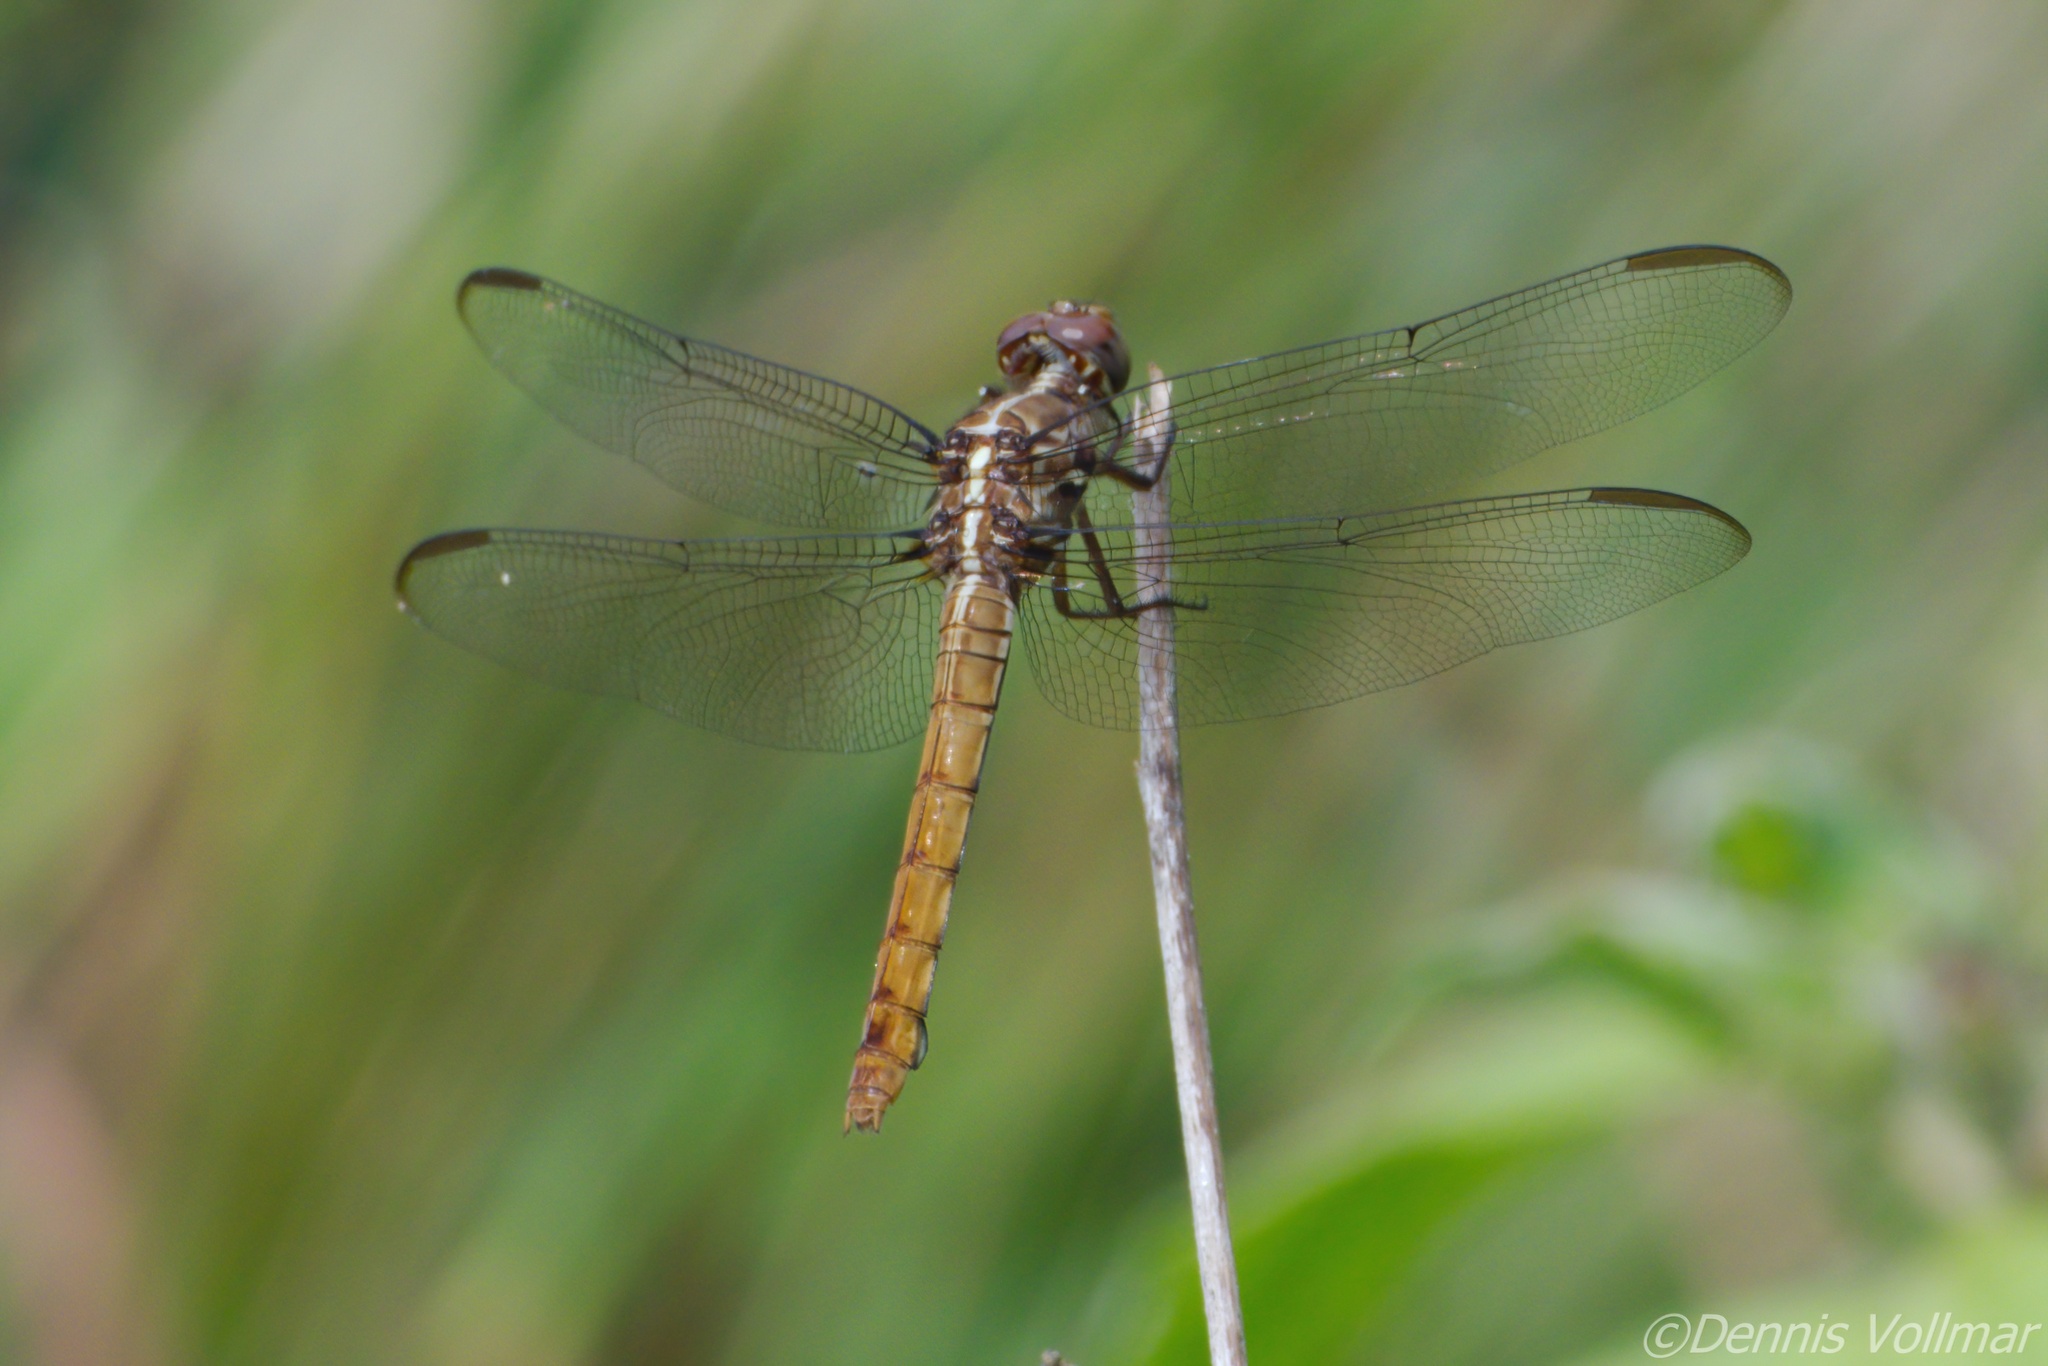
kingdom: Animalia
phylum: Arthropoda
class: Insecta
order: Odonata
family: Libellulidae
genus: Orthemis
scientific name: Orthemis ferruginea
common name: Roseate skimmer
